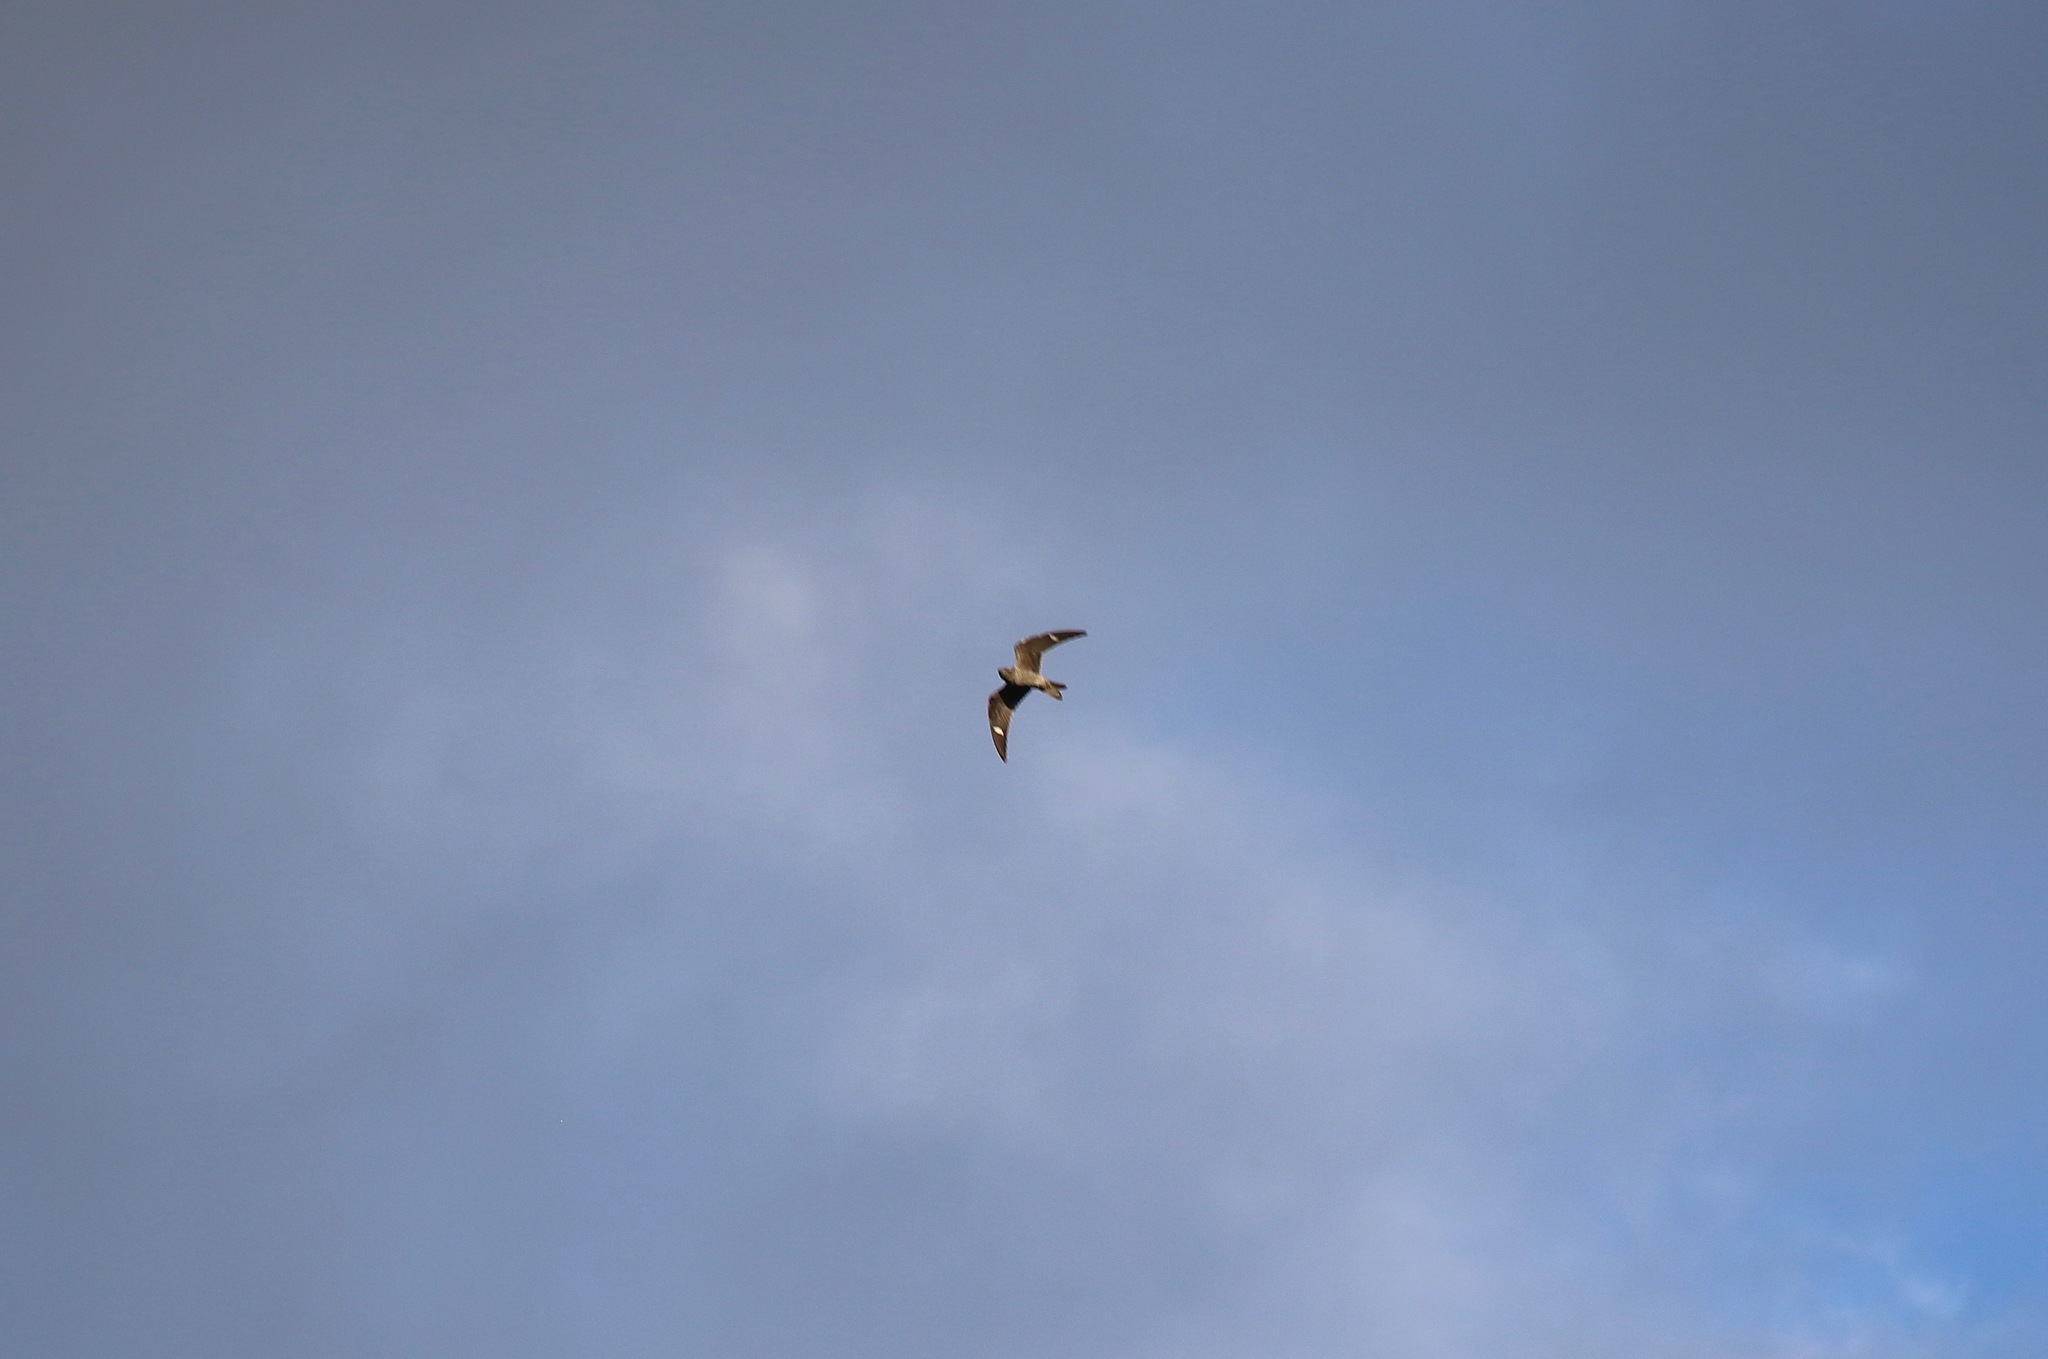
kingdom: Animalia
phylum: Chordata
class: Aves
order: Caprimulgiformes
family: Caprimulgidae
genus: Chordeiles
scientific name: Chordeiles minor
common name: Common nighthawk
